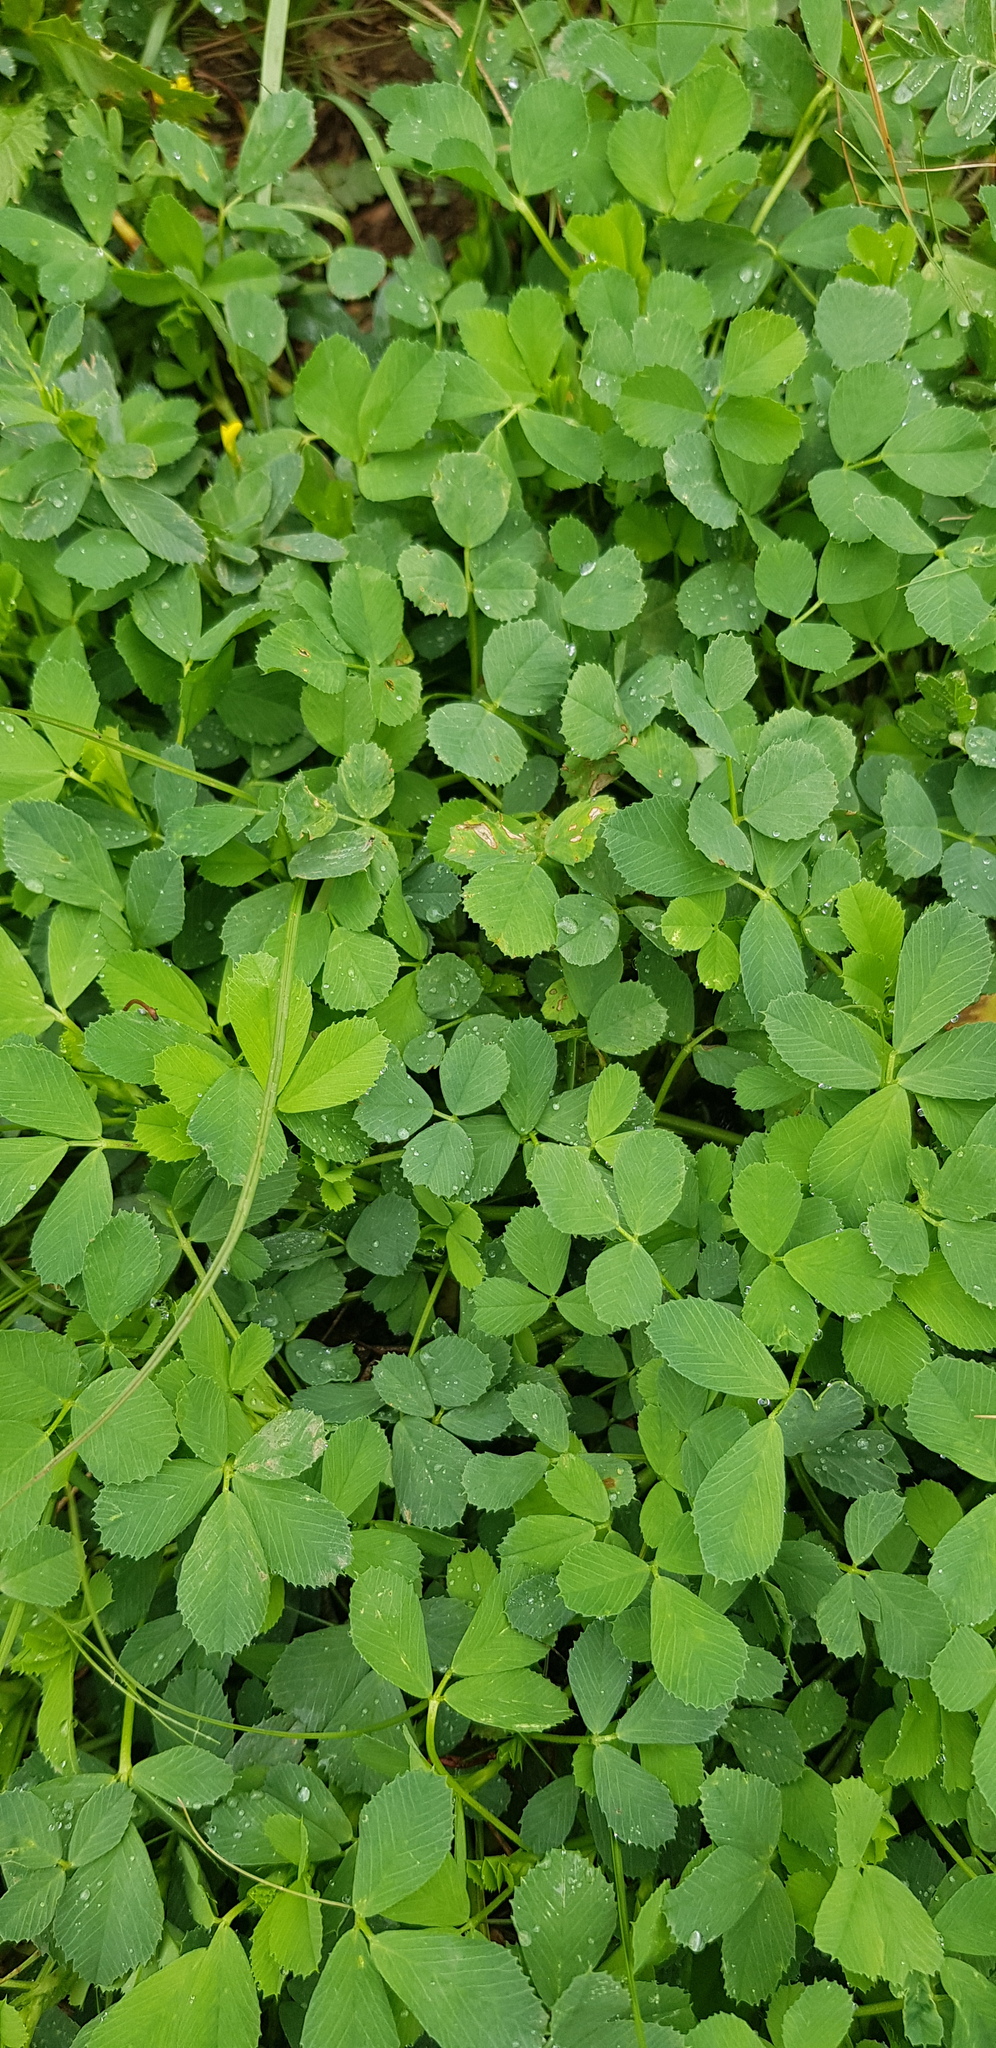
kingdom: Plantae
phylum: Tracheophyta
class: Magnoliopsida
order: Fabales
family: Fabaceae
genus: Trifolium
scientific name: Trifolium repens
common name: White clover
